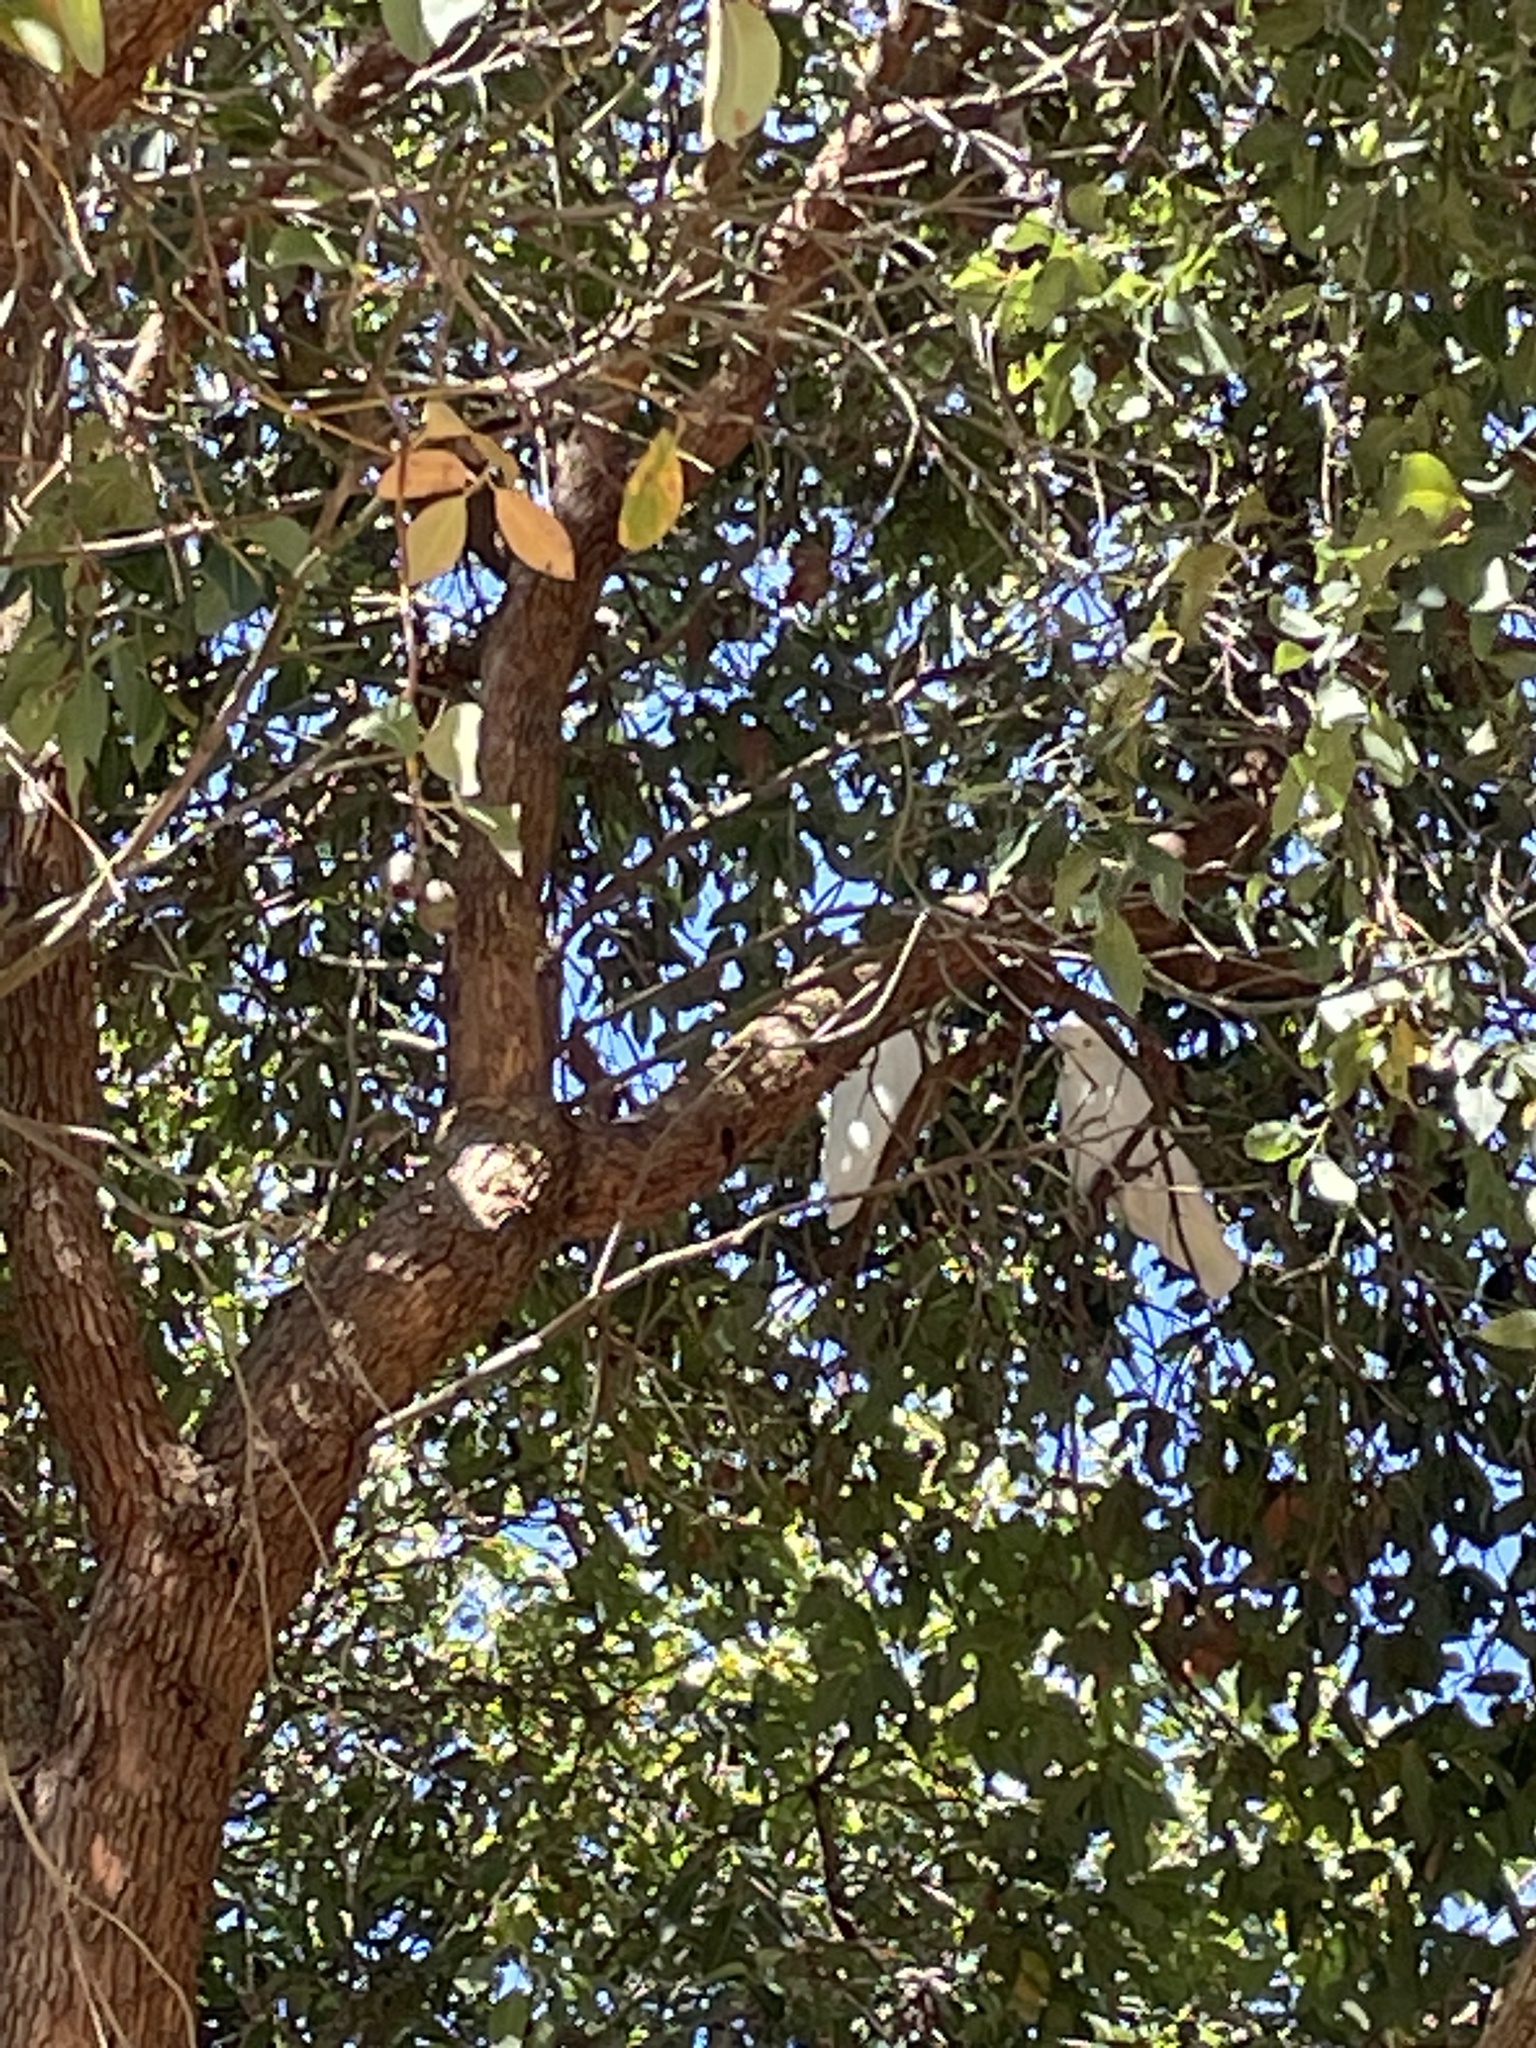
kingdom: Animalia
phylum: Chordata
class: Aves
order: Psittaciformes
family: Psittacidae
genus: Cacatua
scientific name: Cacatua galerita
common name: Sulphur-crested cockatoo
